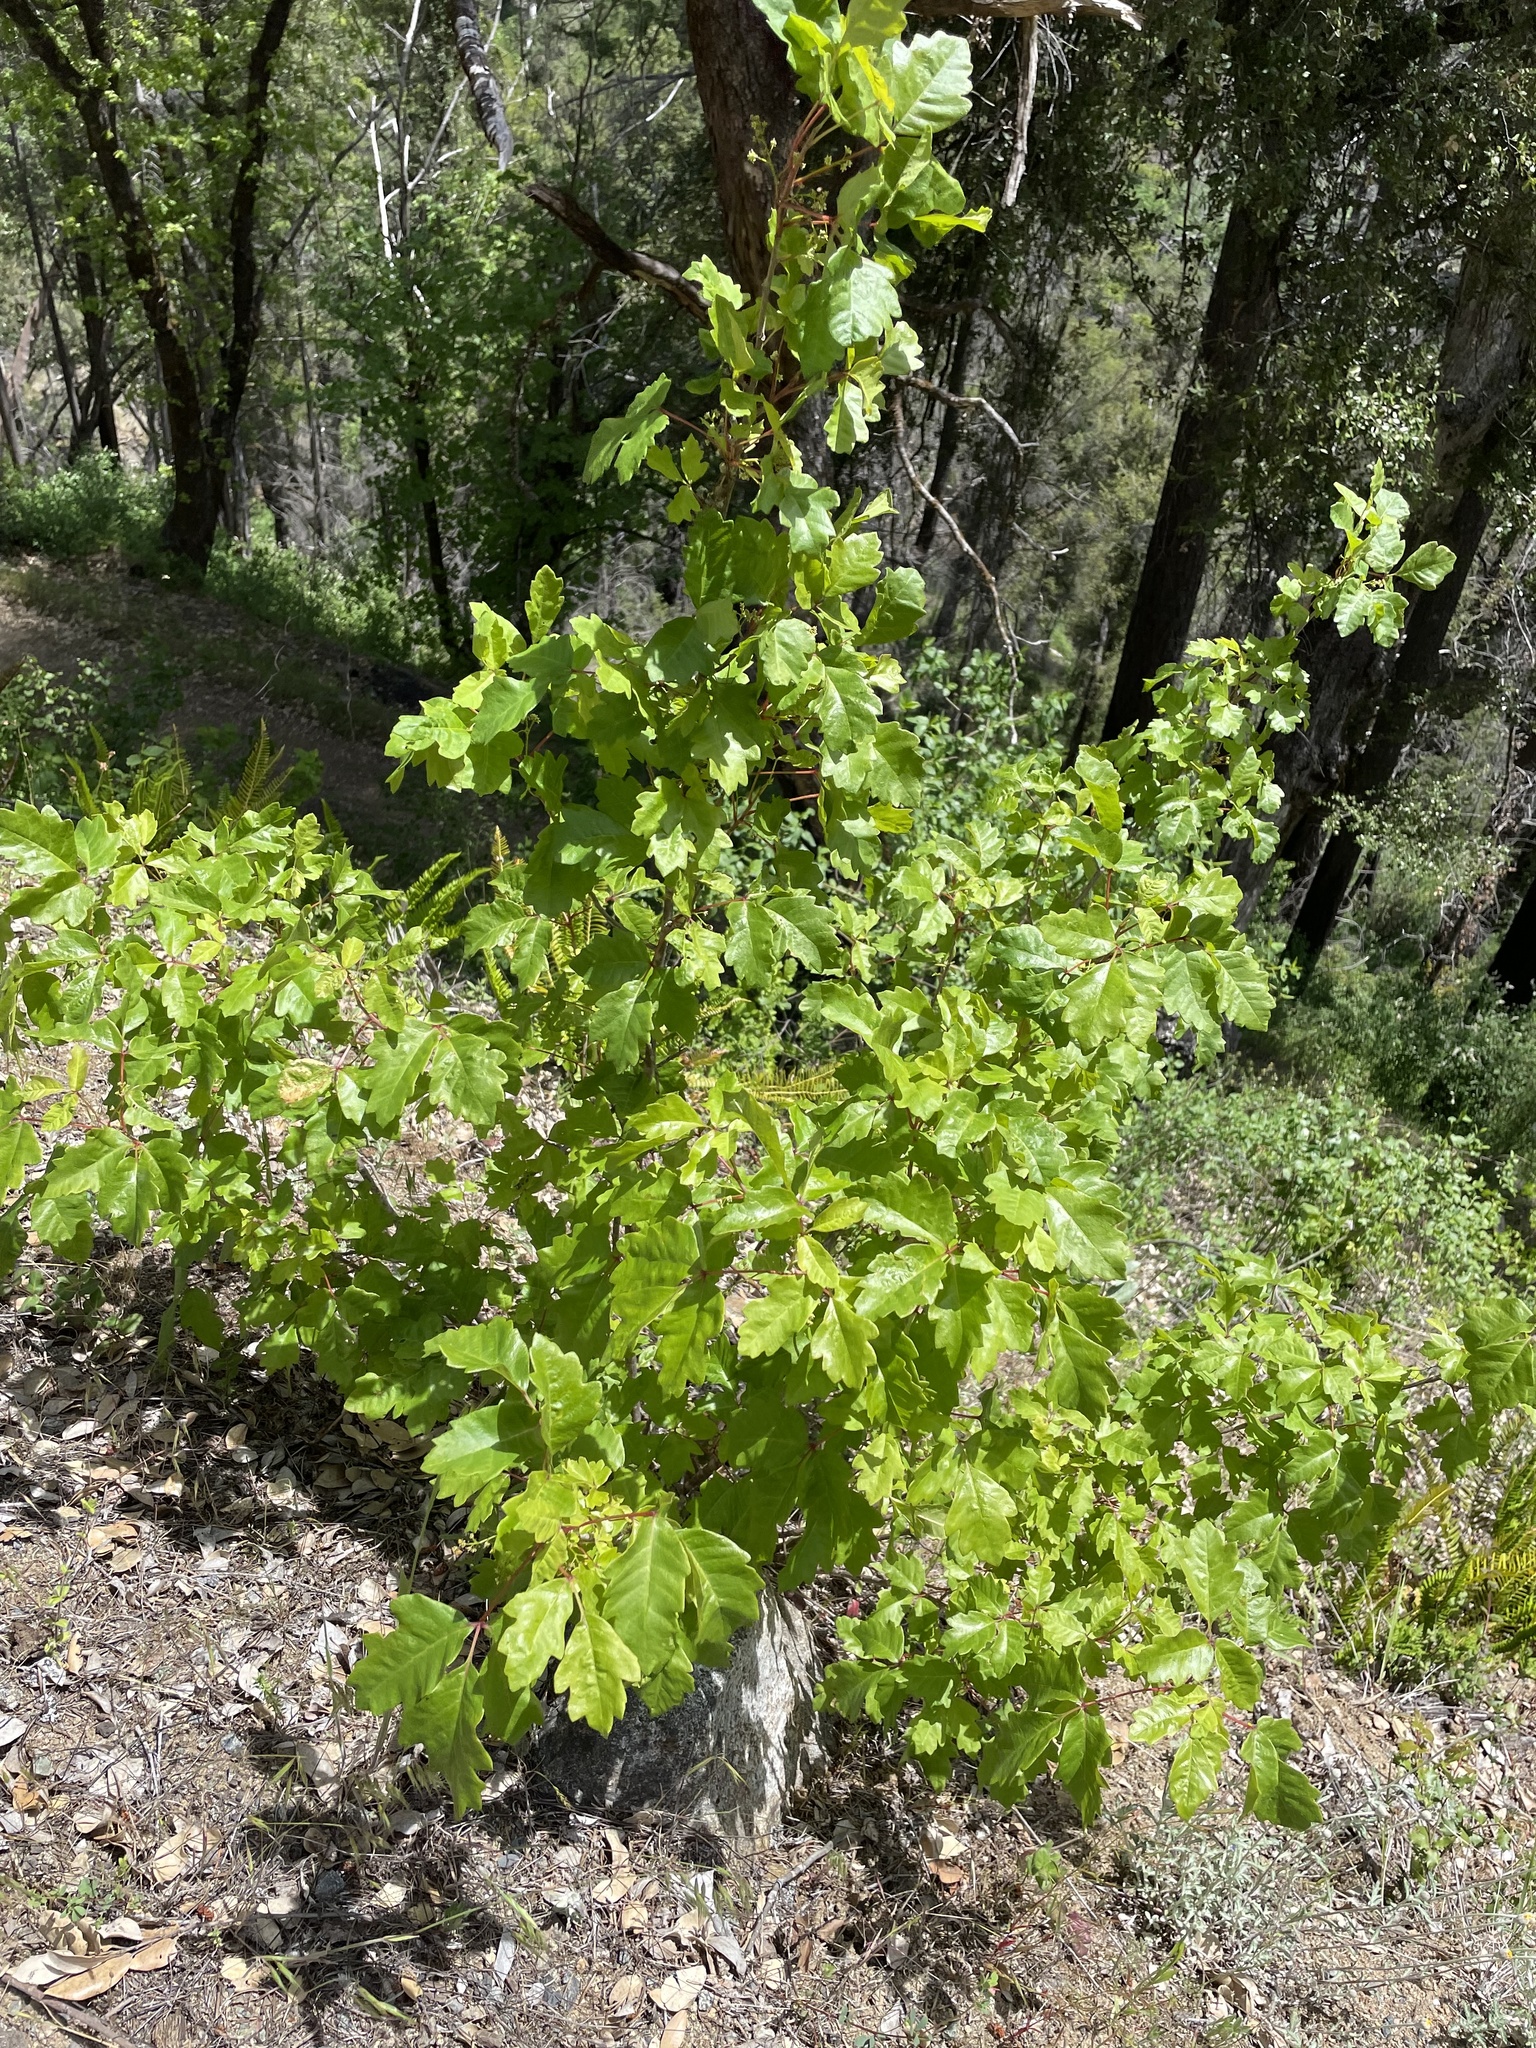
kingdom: Plantae
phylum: Tracheophyta
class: Magnoliopsida
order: Sapindales
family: Anacardiaceae
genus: Toxicodendron
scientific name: Toxicodendron diversilobum
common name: Pacific poison-oak
